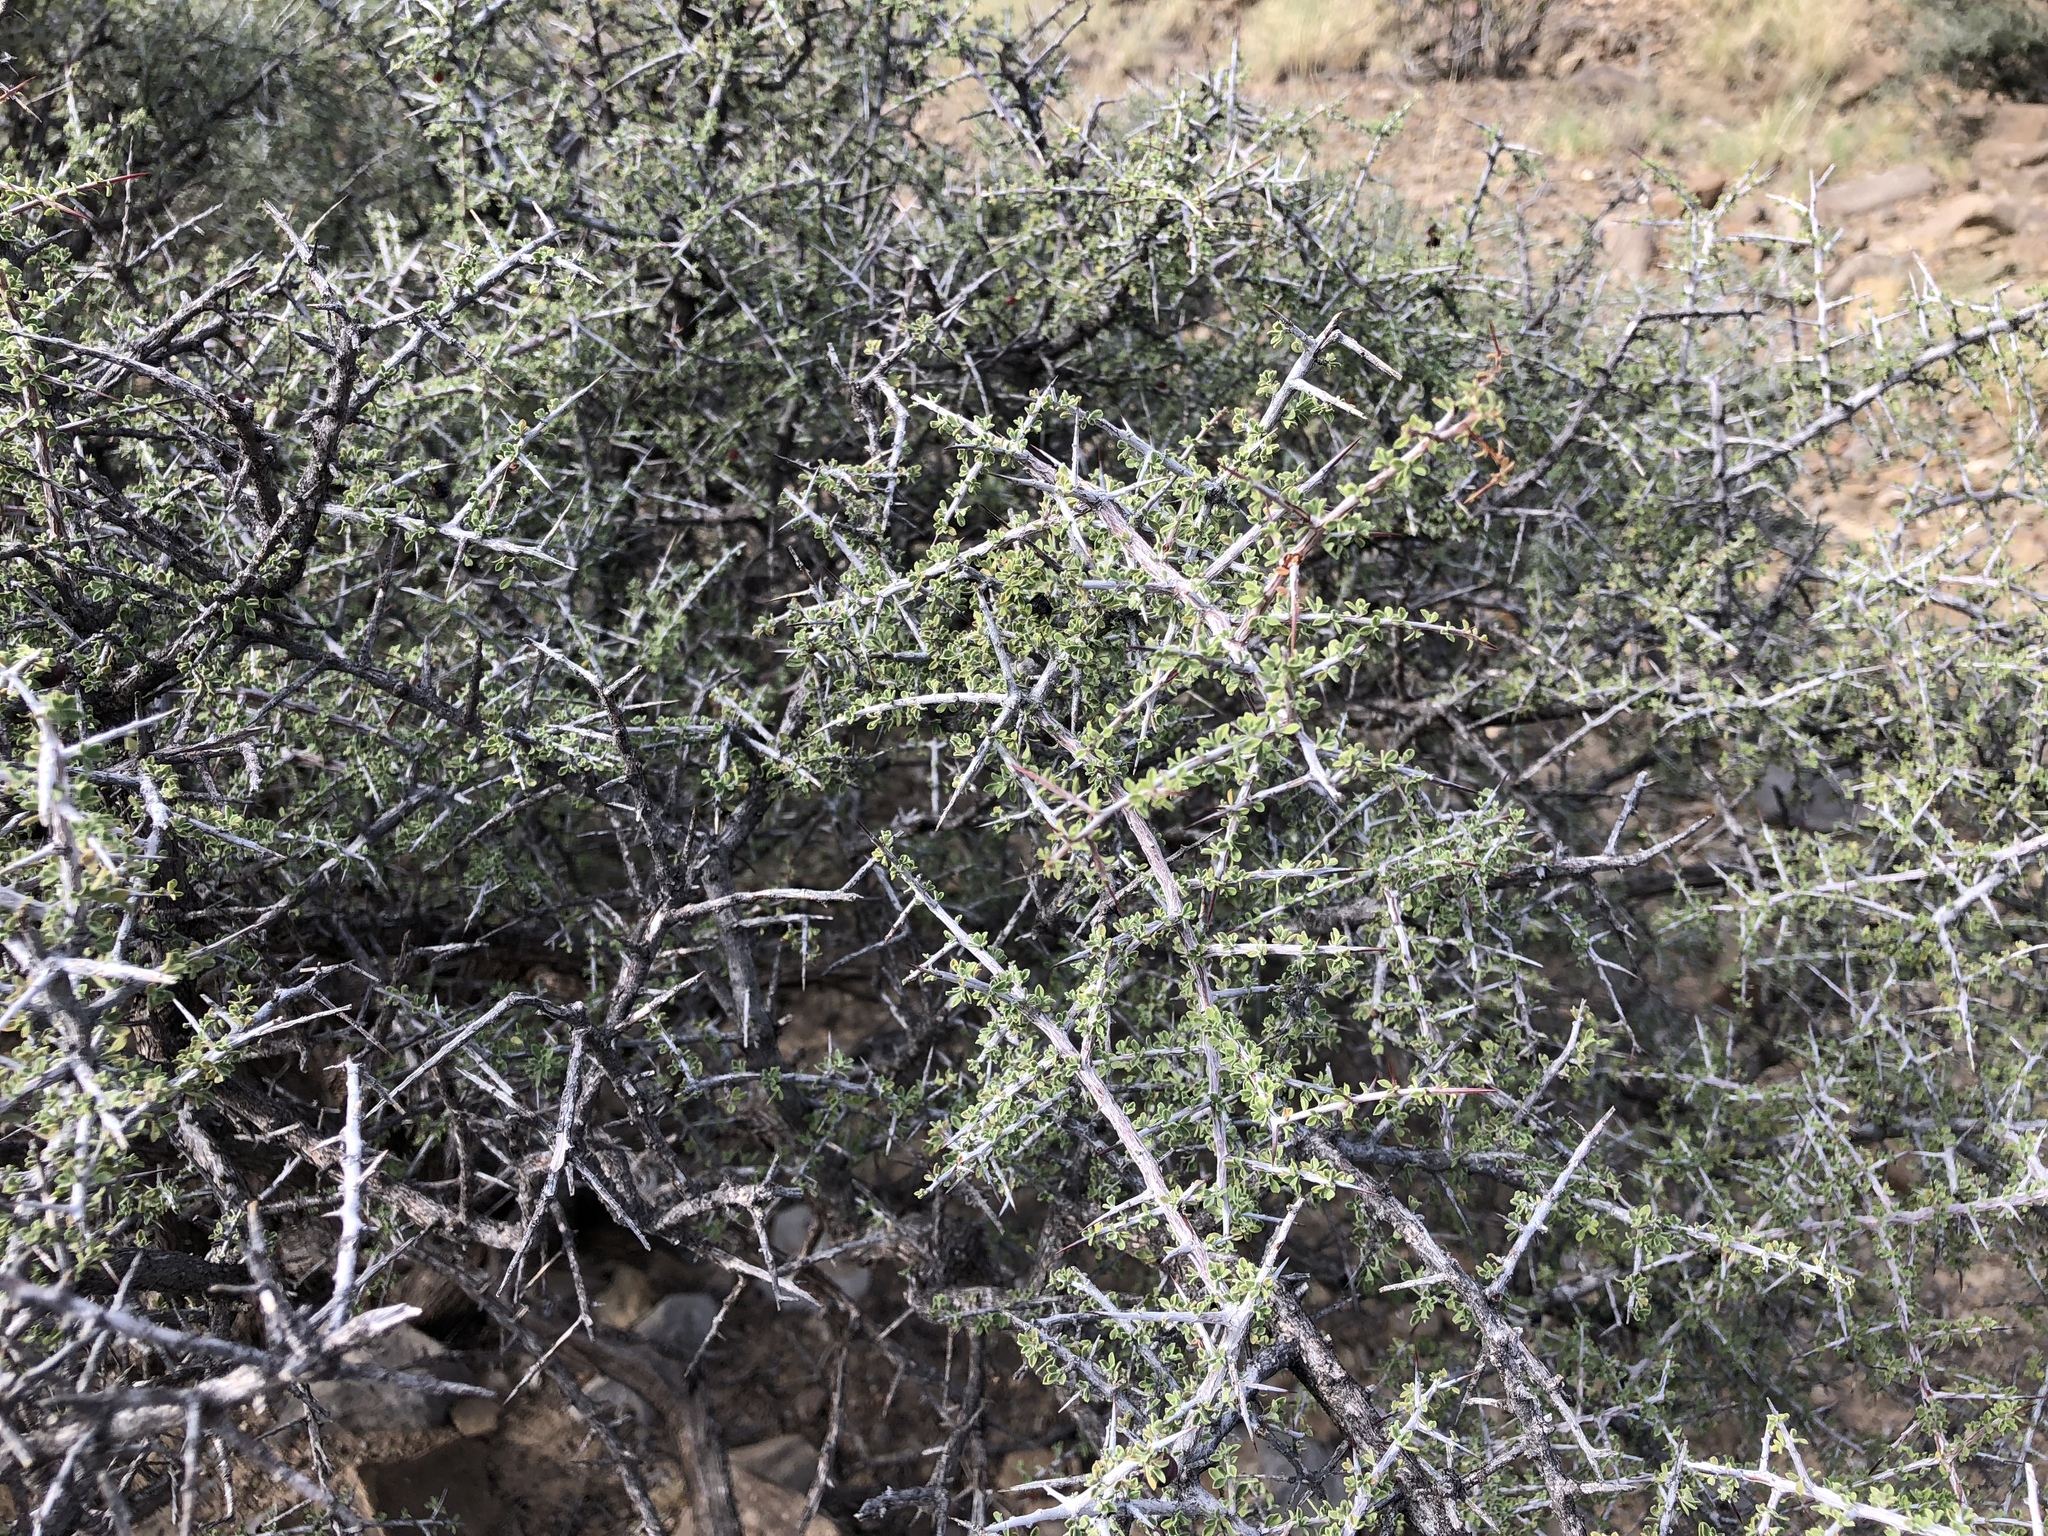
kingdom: Plantae
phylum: Tracheophyta
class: Magnoliopsida
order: Rosales
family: Rhamnaceae
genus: Condalia
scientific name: Condalia warnockii
